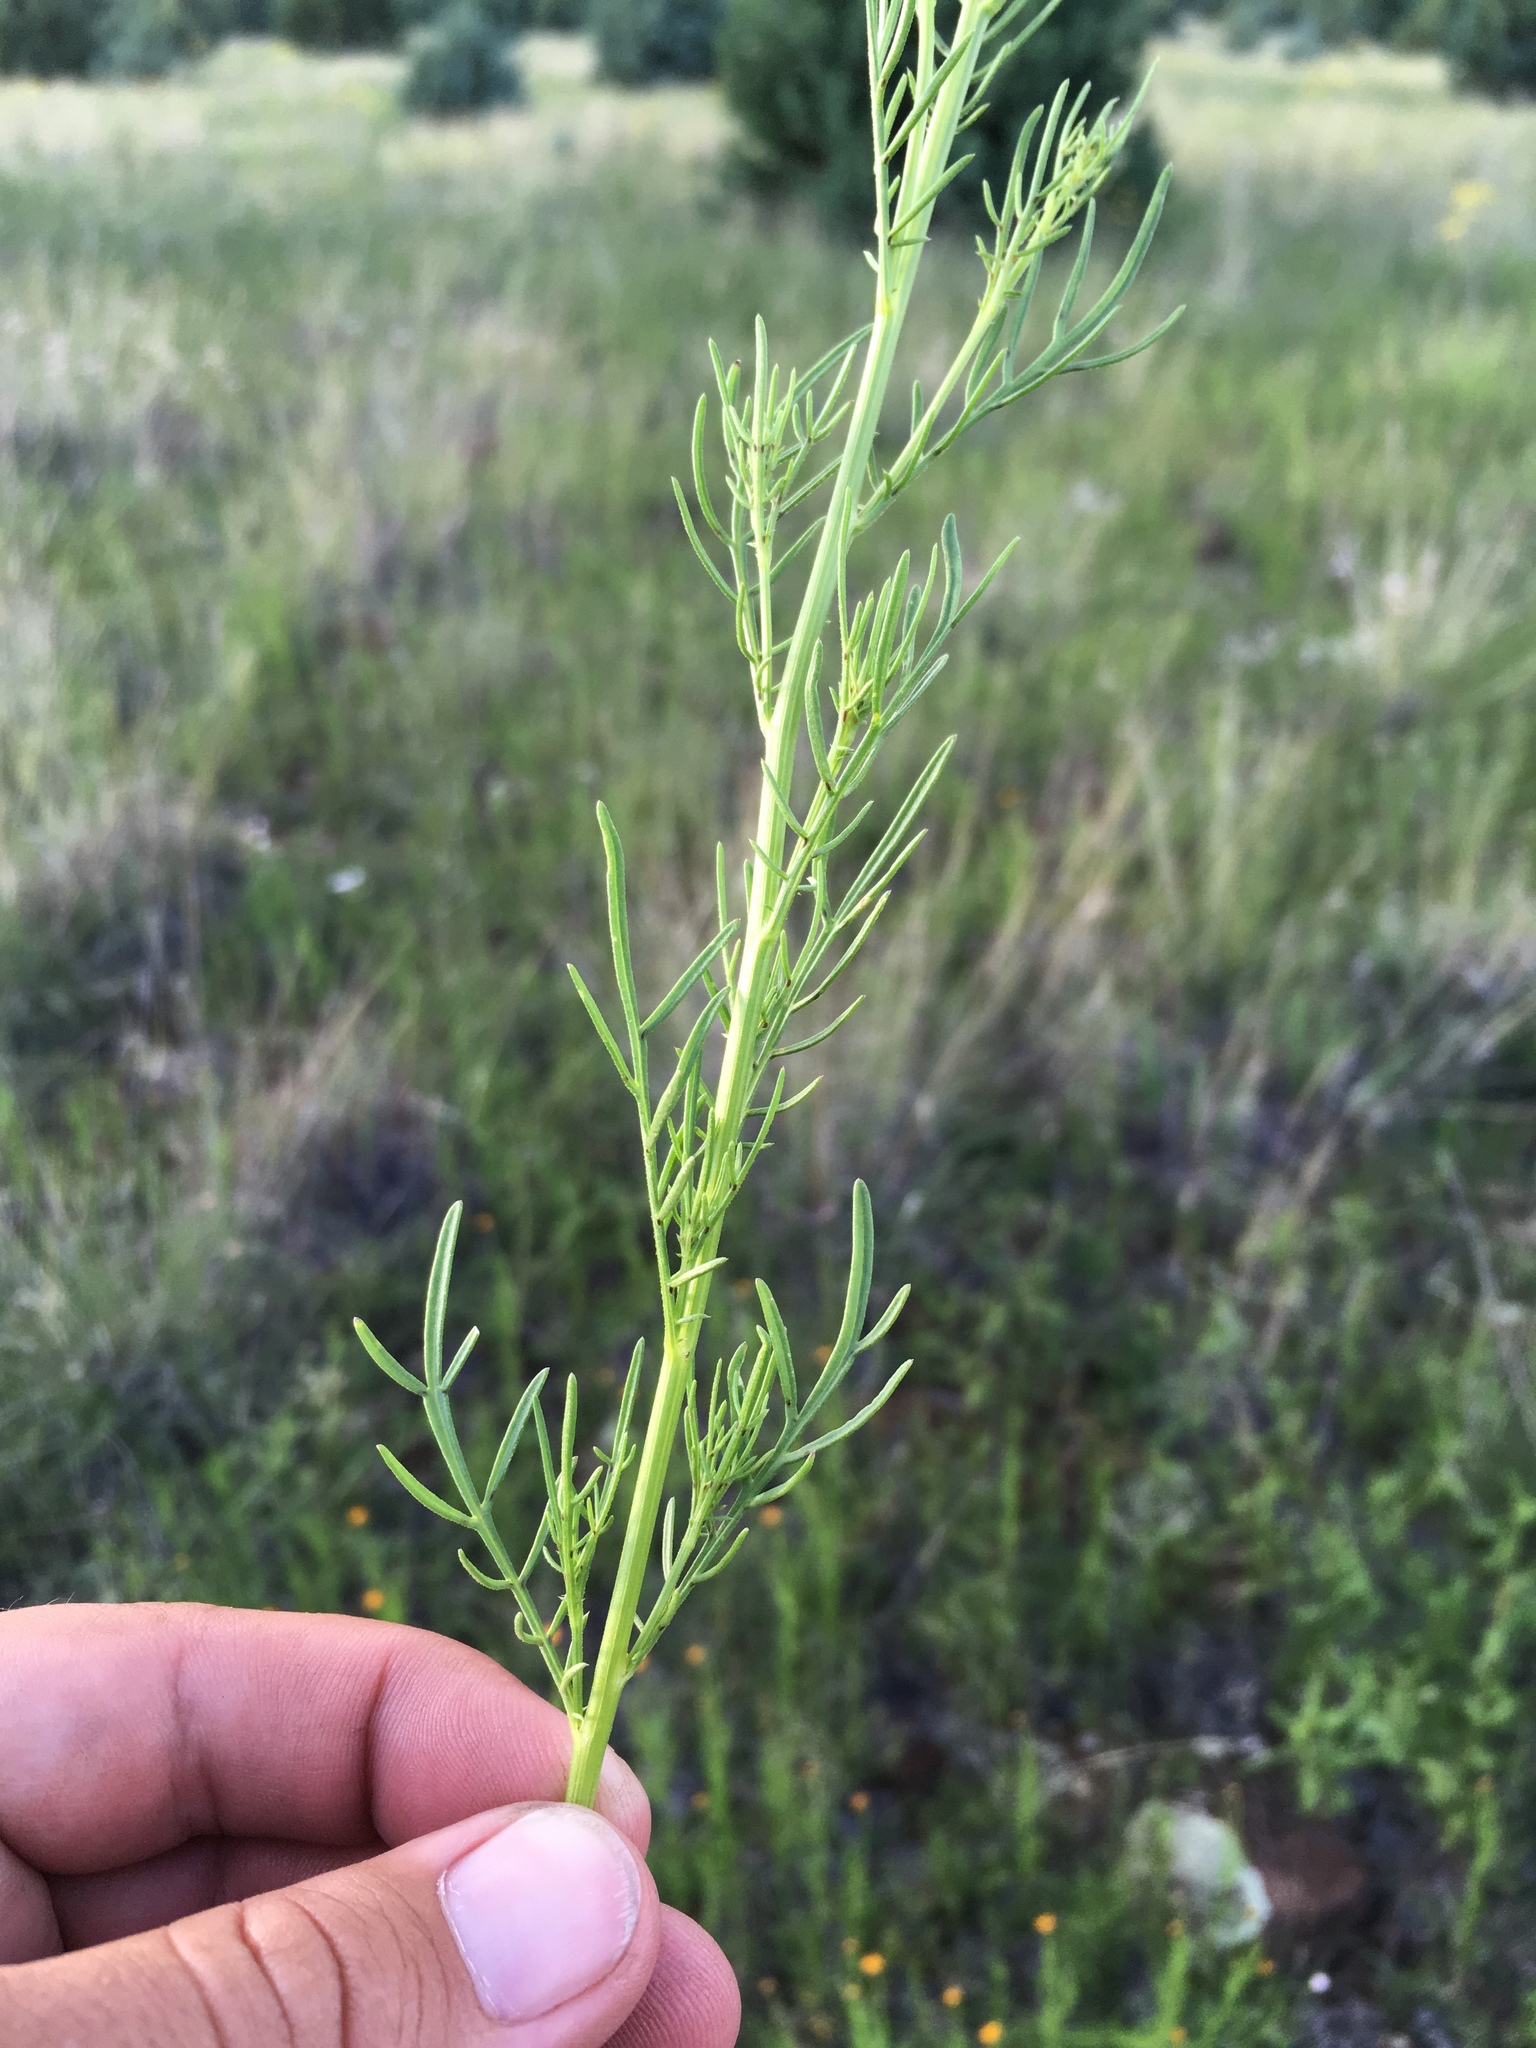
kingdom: Plantae
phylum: Tracheophyta
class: Magnoliopsida
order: Asterales
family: Asteraceae
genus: Adenophyllum
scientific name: Adenophyllum wrightii
